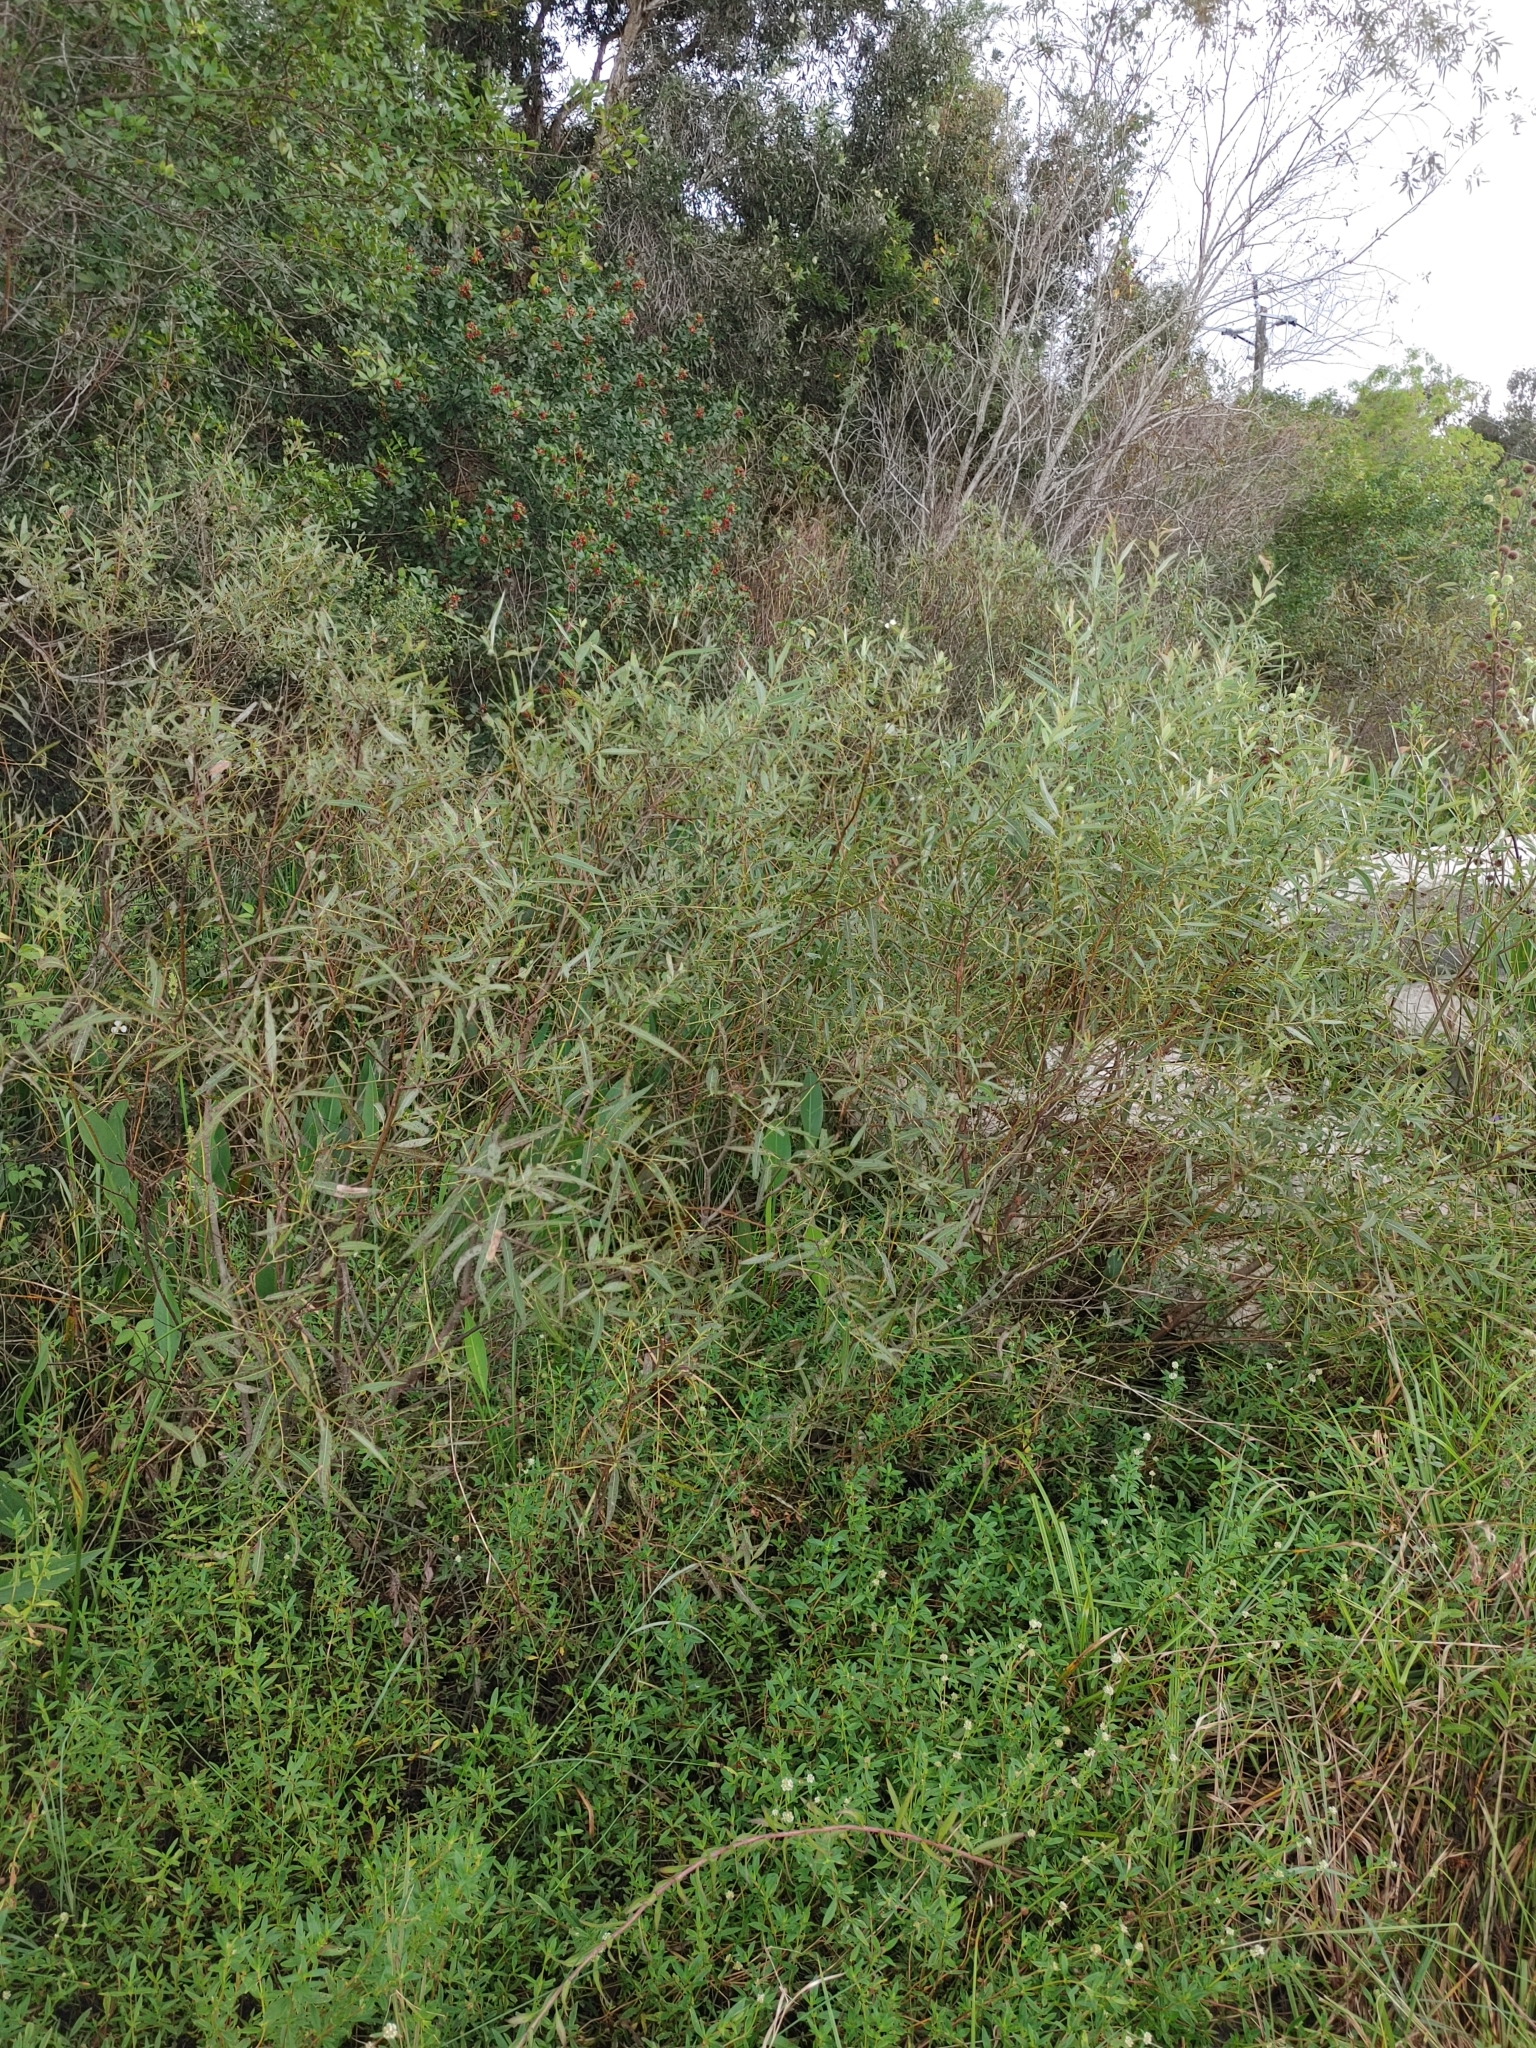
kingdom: Plantae
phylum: Tracheophyta
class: Magnoliopsida
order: Malpighiales
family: Salicaceae
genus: Salix
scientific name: Salix caroliniana
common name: Carolina willow
